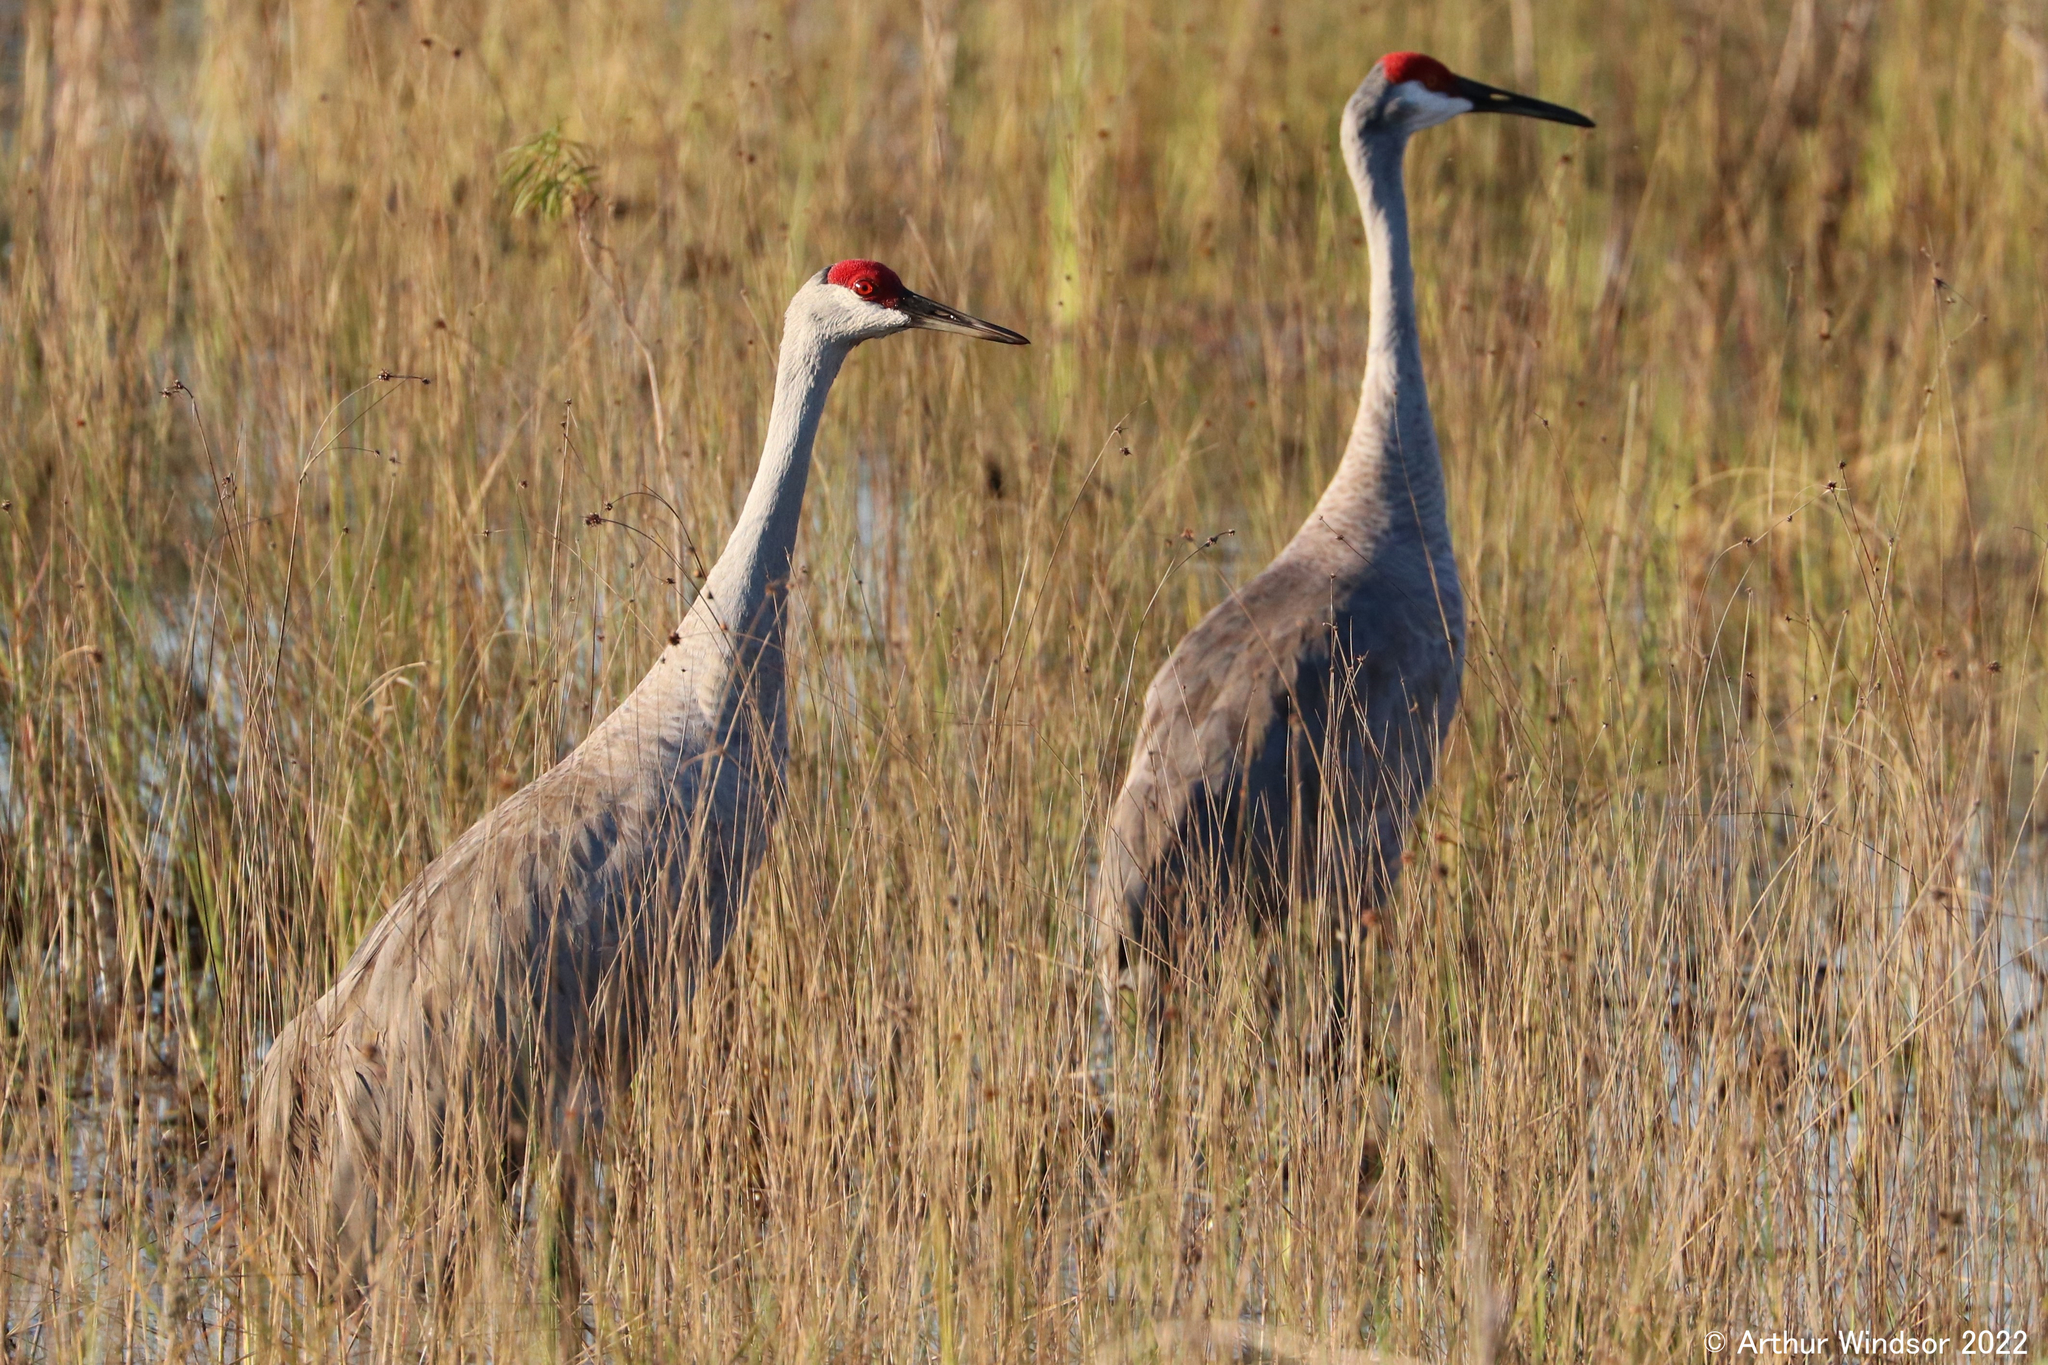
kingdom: Animalia
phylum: Chordata
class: Aves
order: Gruiformes
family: Gruidae
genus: Grus
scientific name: Grus canadensis
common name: Sandhill crane
